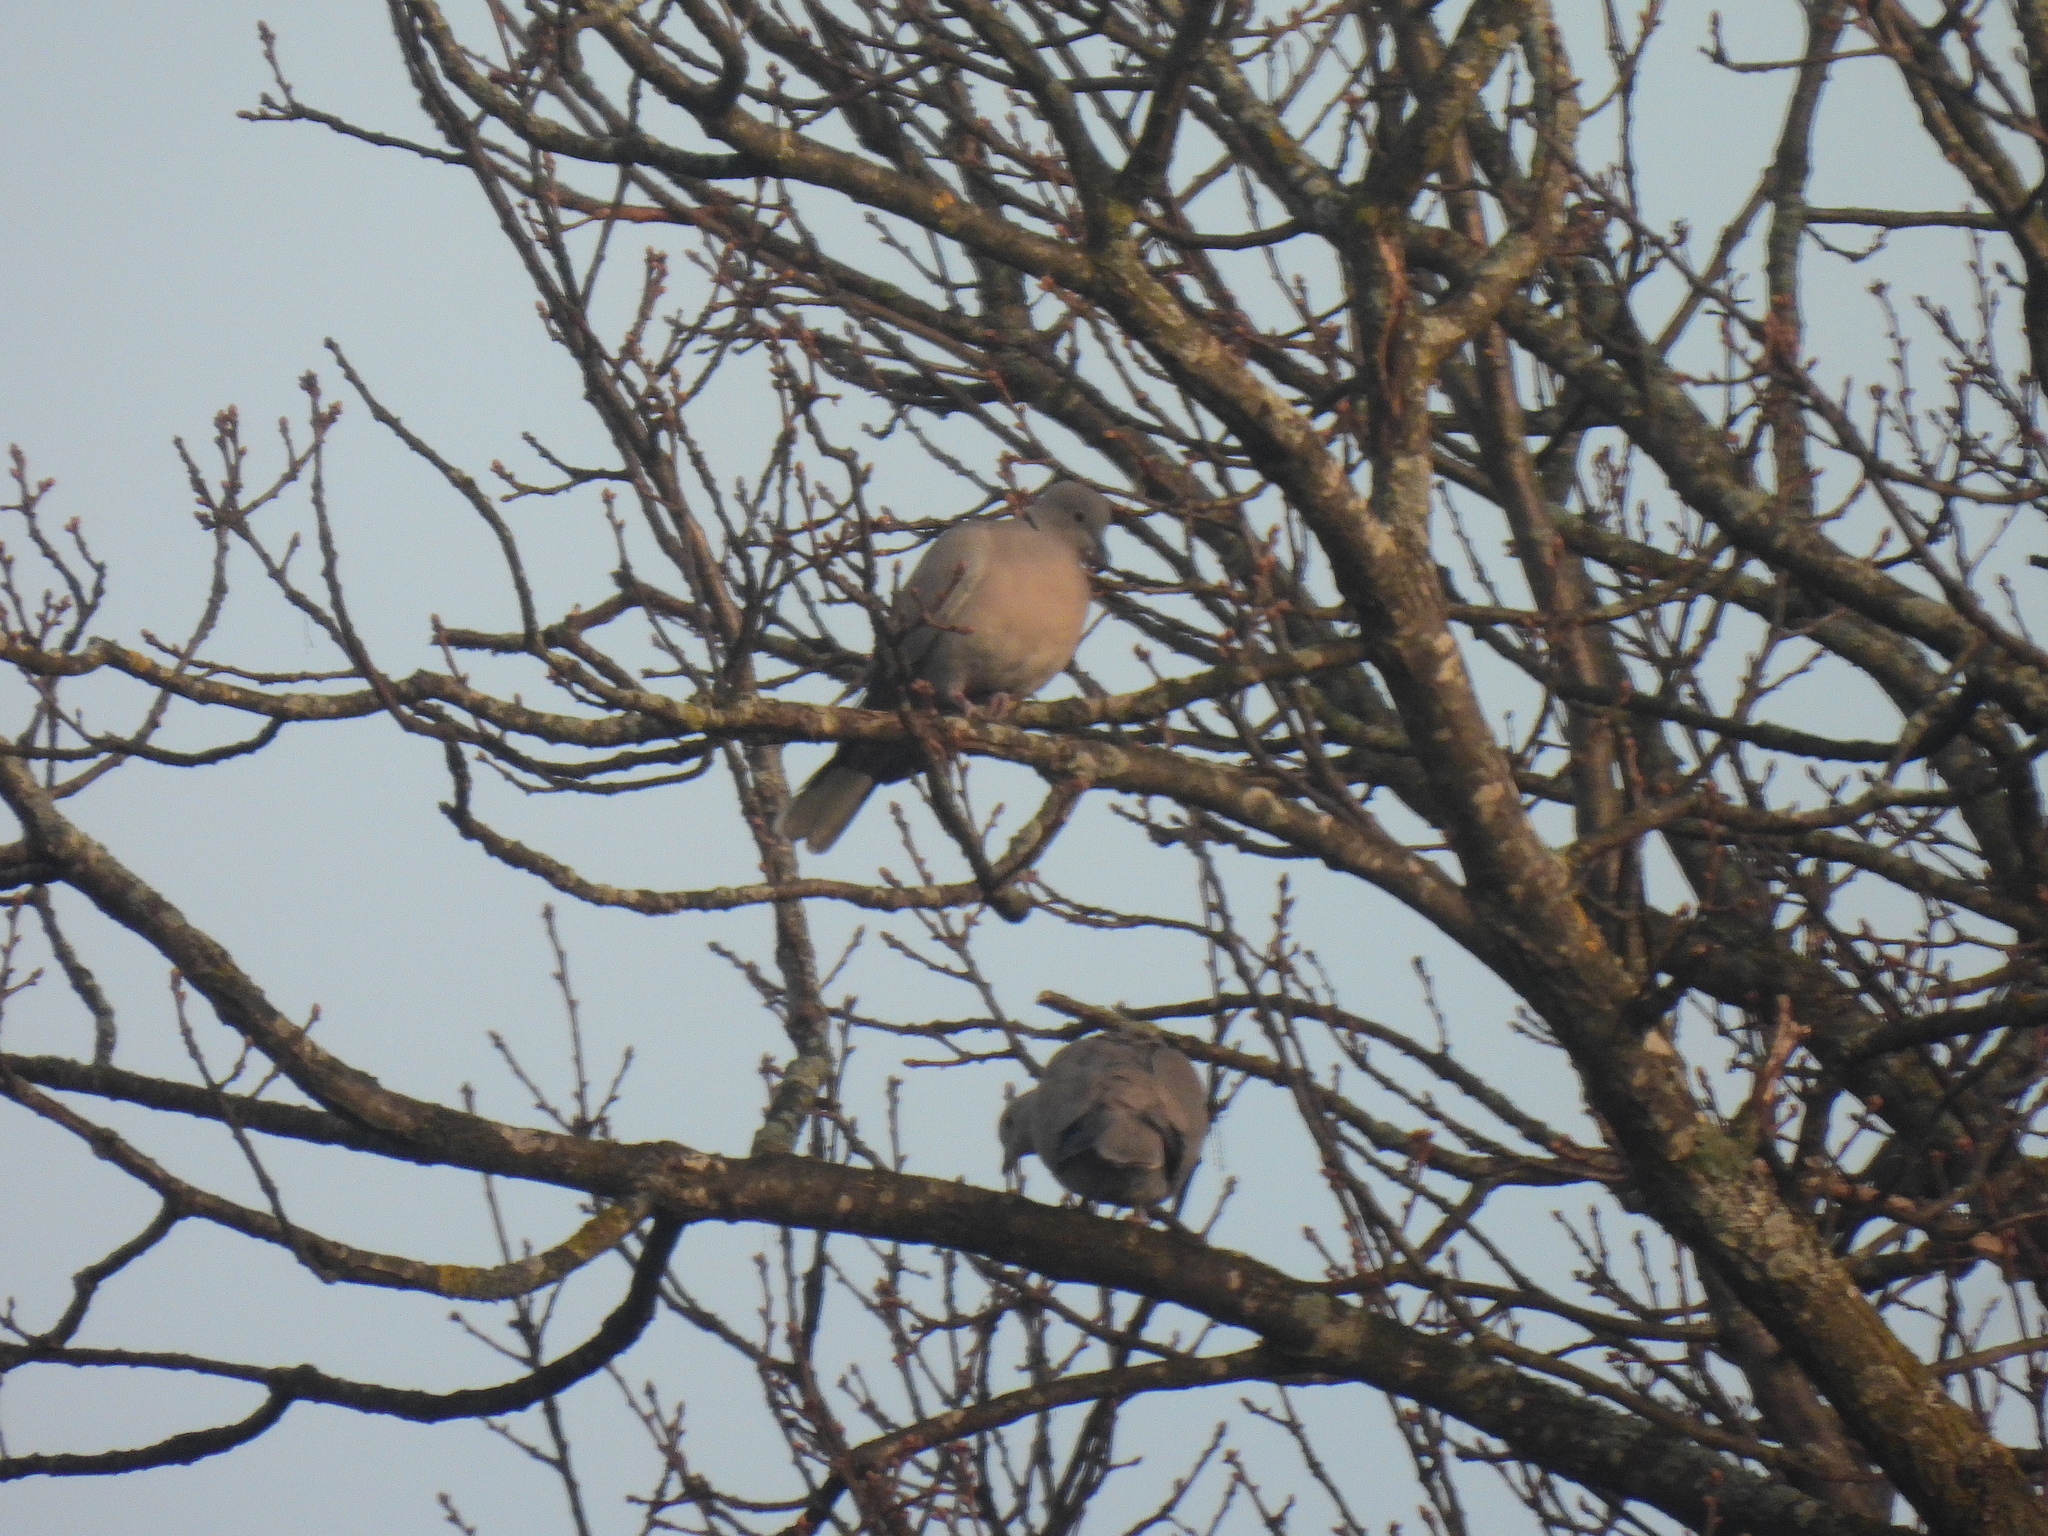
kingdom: Animalia
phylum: Chordata
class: Aves
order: Columbiformes
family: Columbidae
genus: Streptopelia
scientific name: Streptopelia decaocto
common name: Eurasian collared dove
